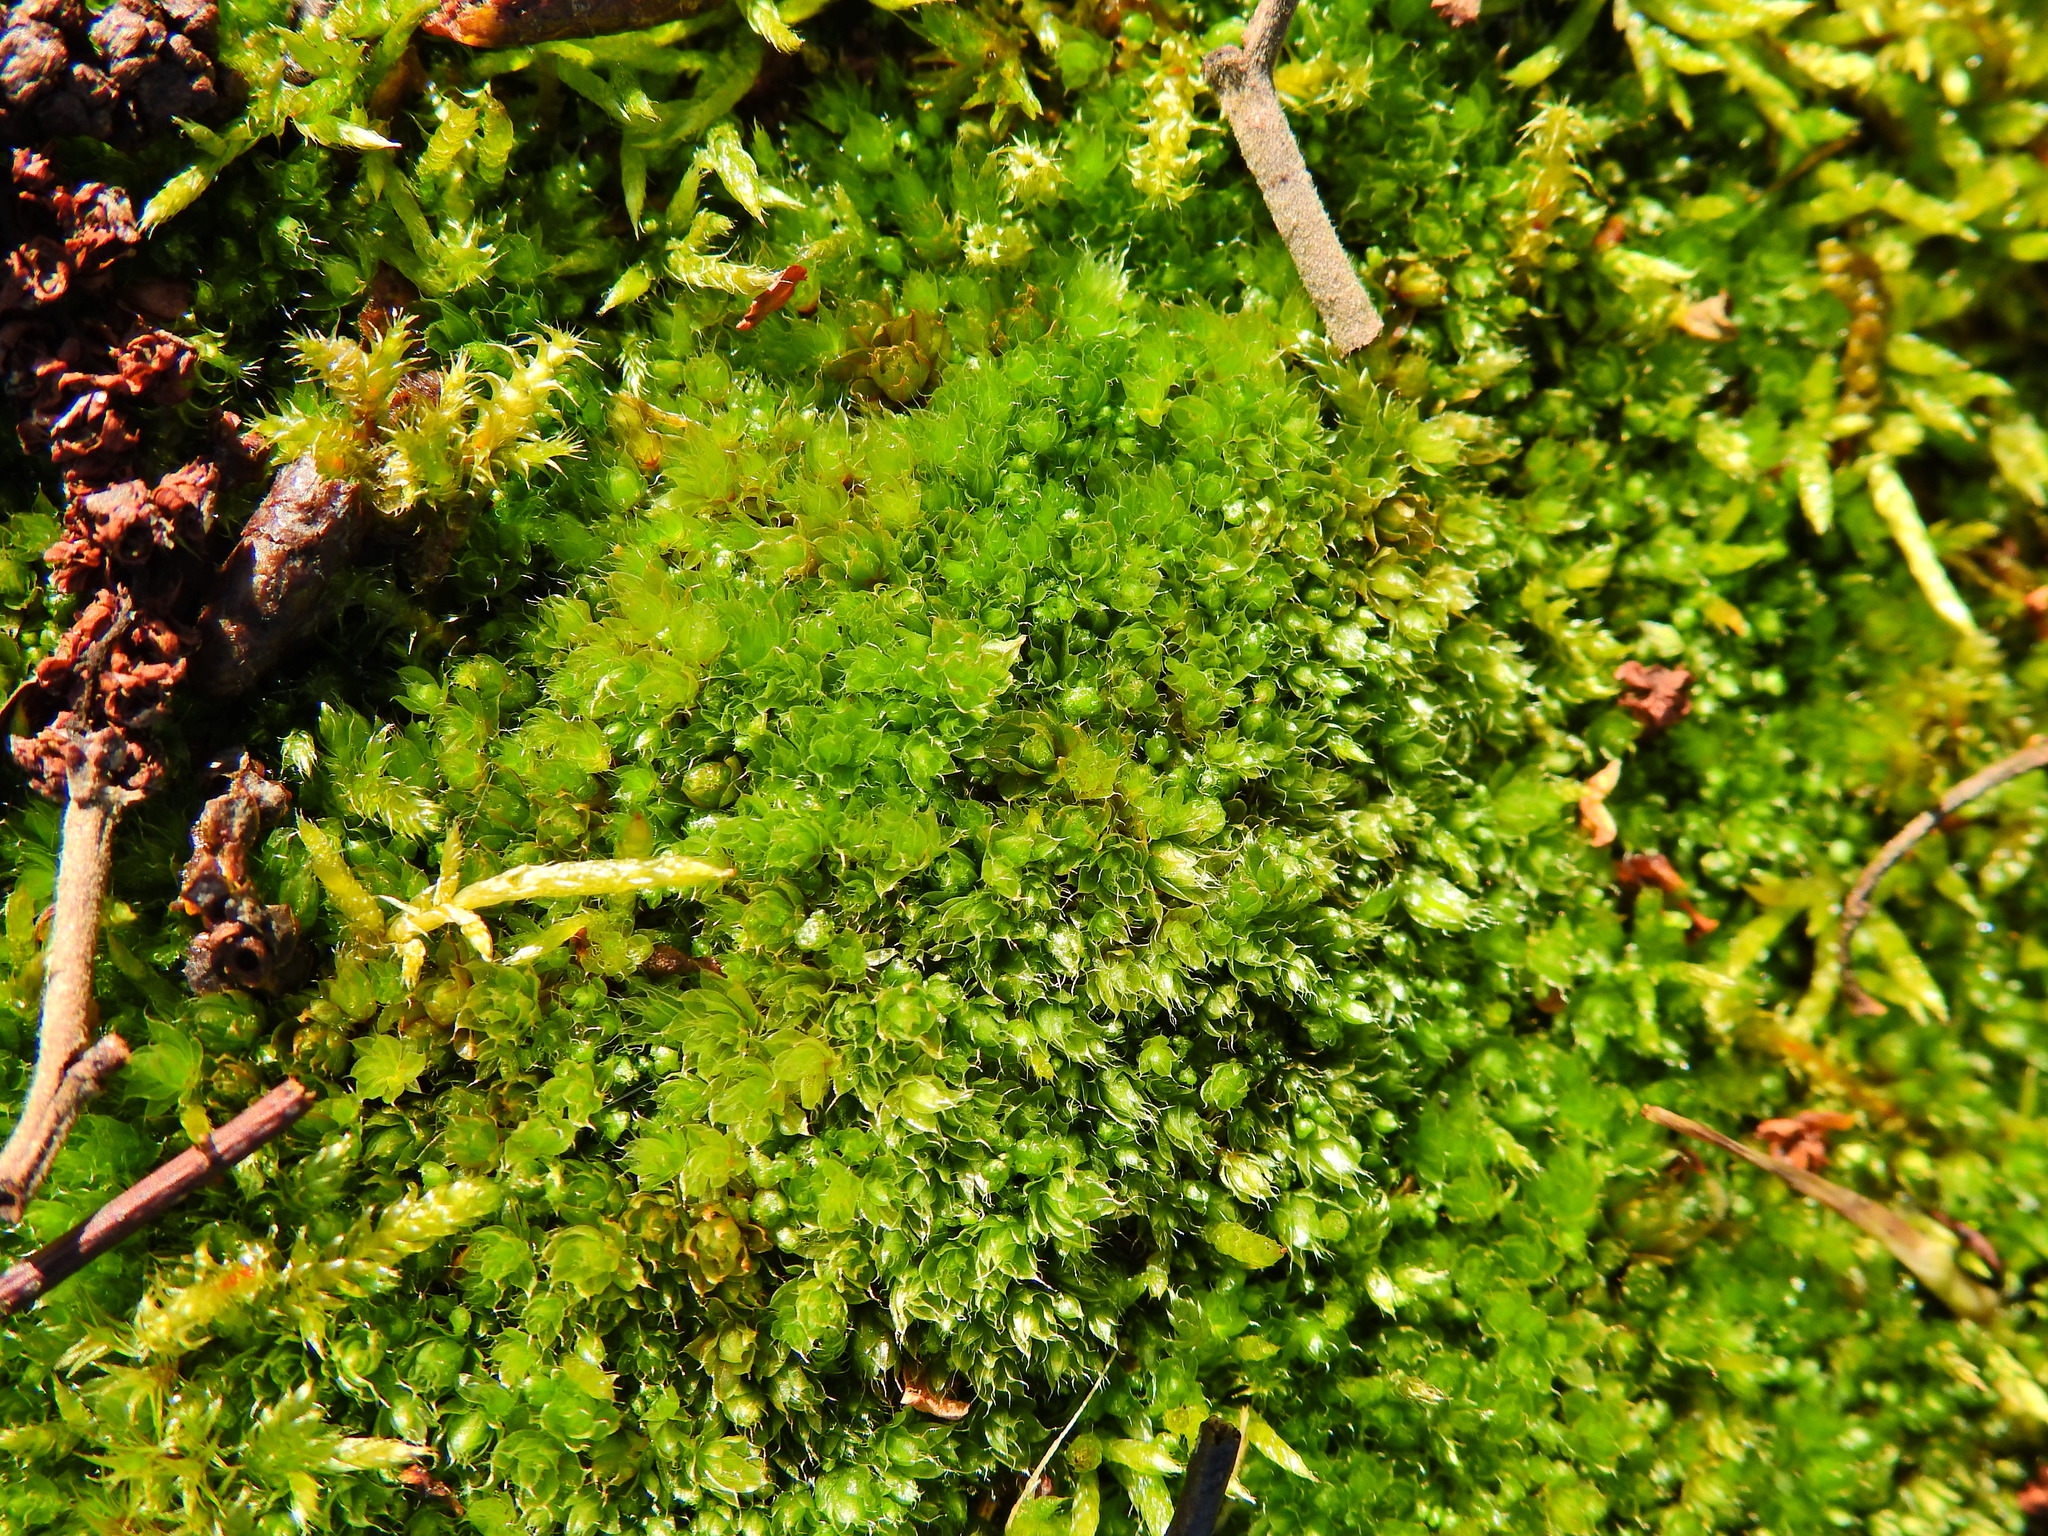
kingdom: Plantae
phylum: Bryophyta
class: Bryopsida
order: Bryales
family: Bryaceae
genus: Rosulabryum
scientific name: Rosulabryum capillare
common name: Capillary thread-moss
